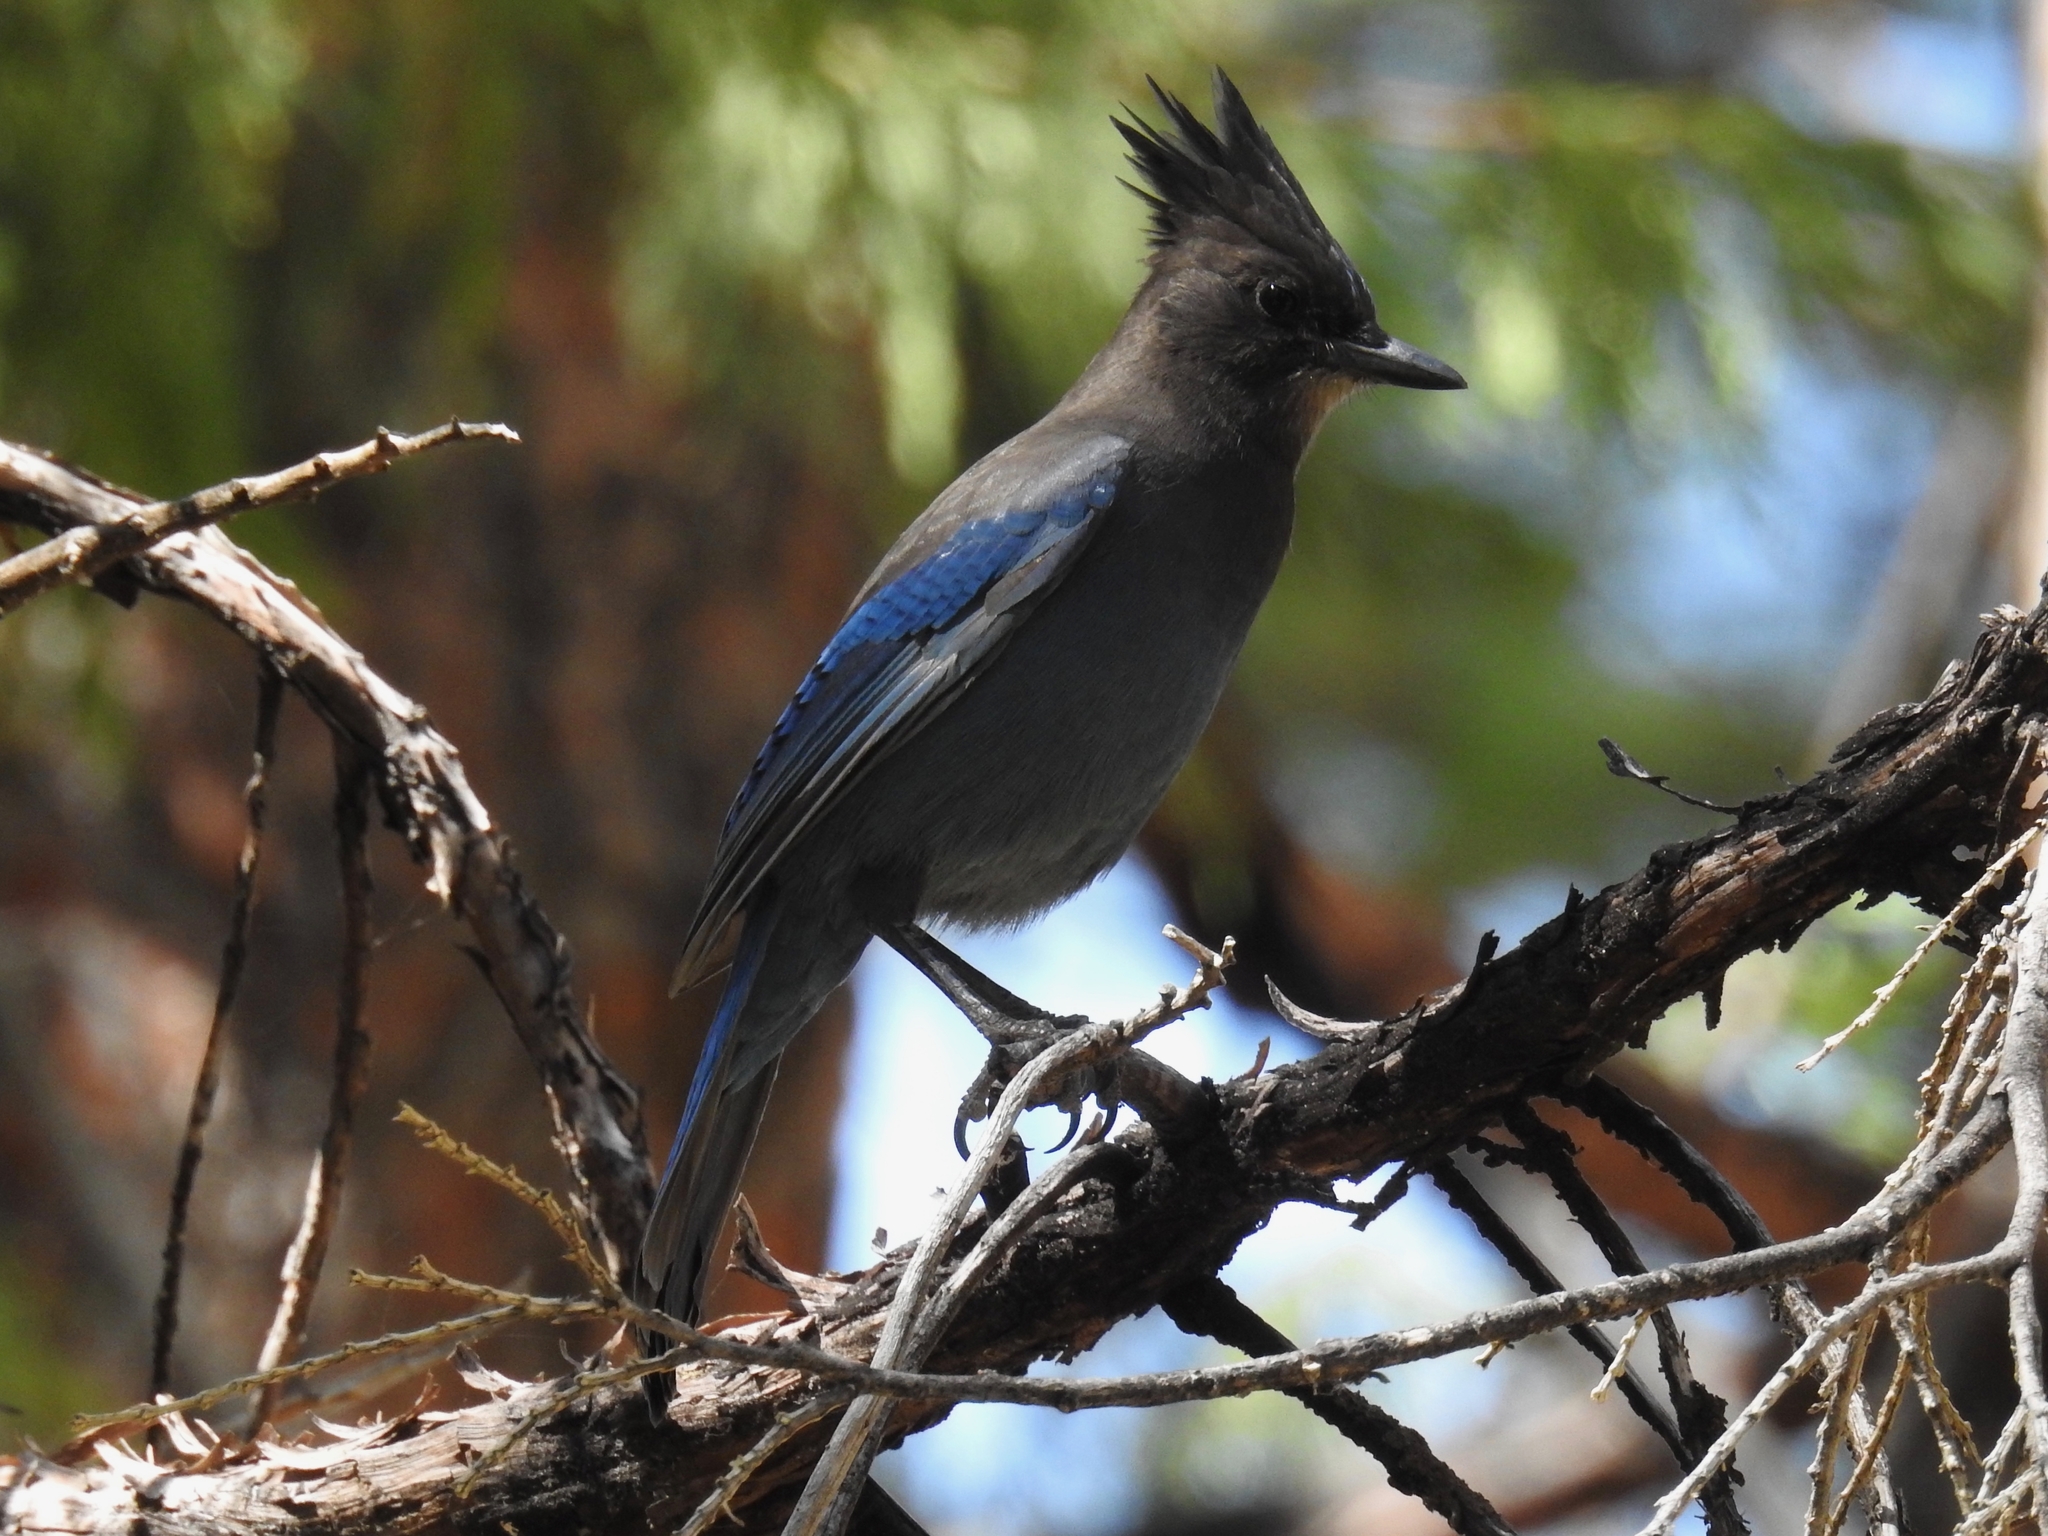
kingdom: Animalia
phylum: Chordata
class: Aves
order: Passeriformes
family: Corvidae
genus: Cyanocitta
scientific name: Cyanocitta stelleri
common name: Steller's jay
